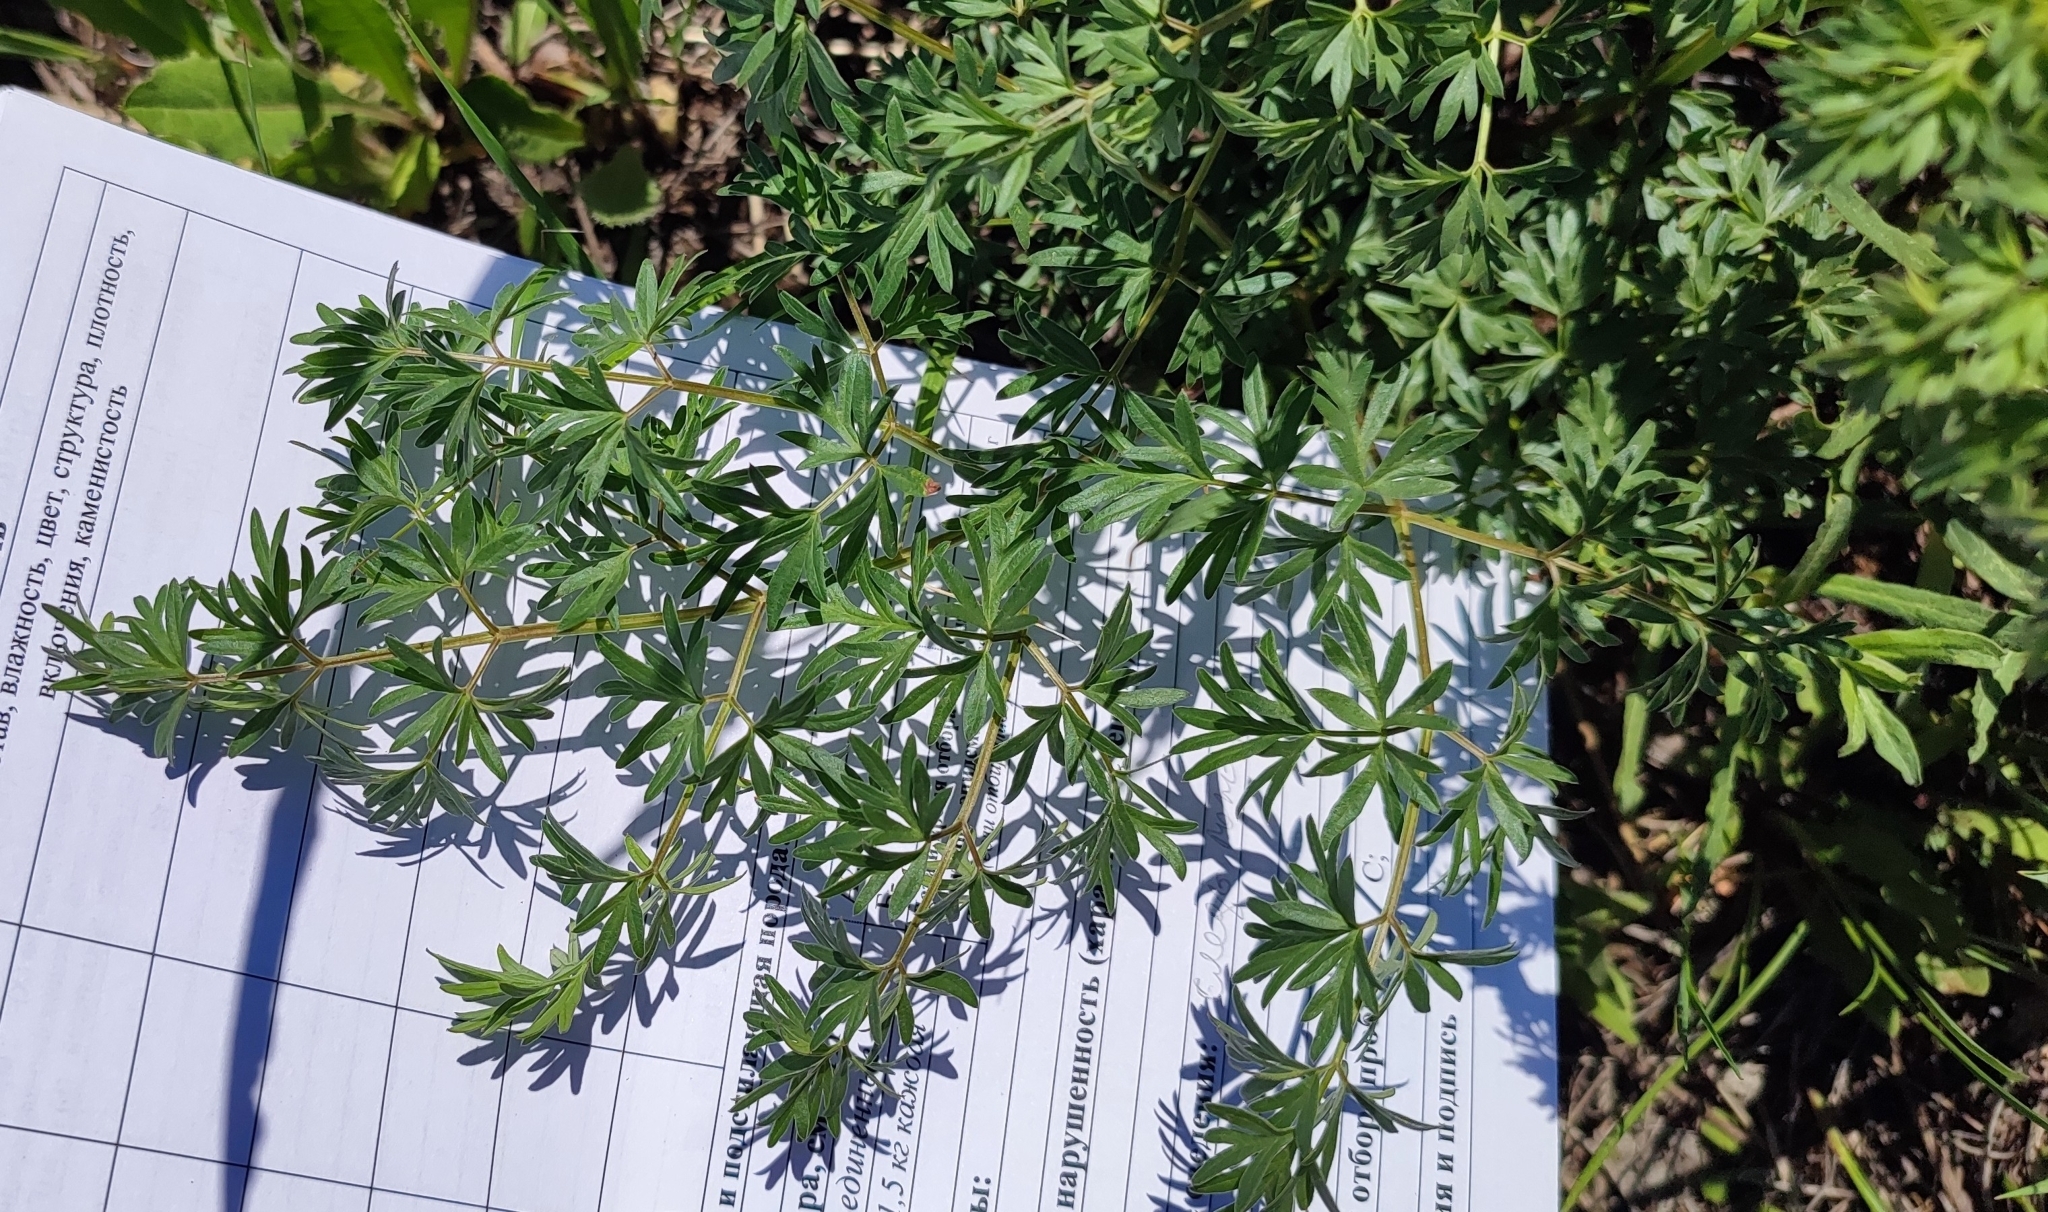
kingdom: Plantae
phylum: Tracheophyta
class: Magnoliopsida
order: Apiales
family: Apiaceae
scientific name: Apiaceae
